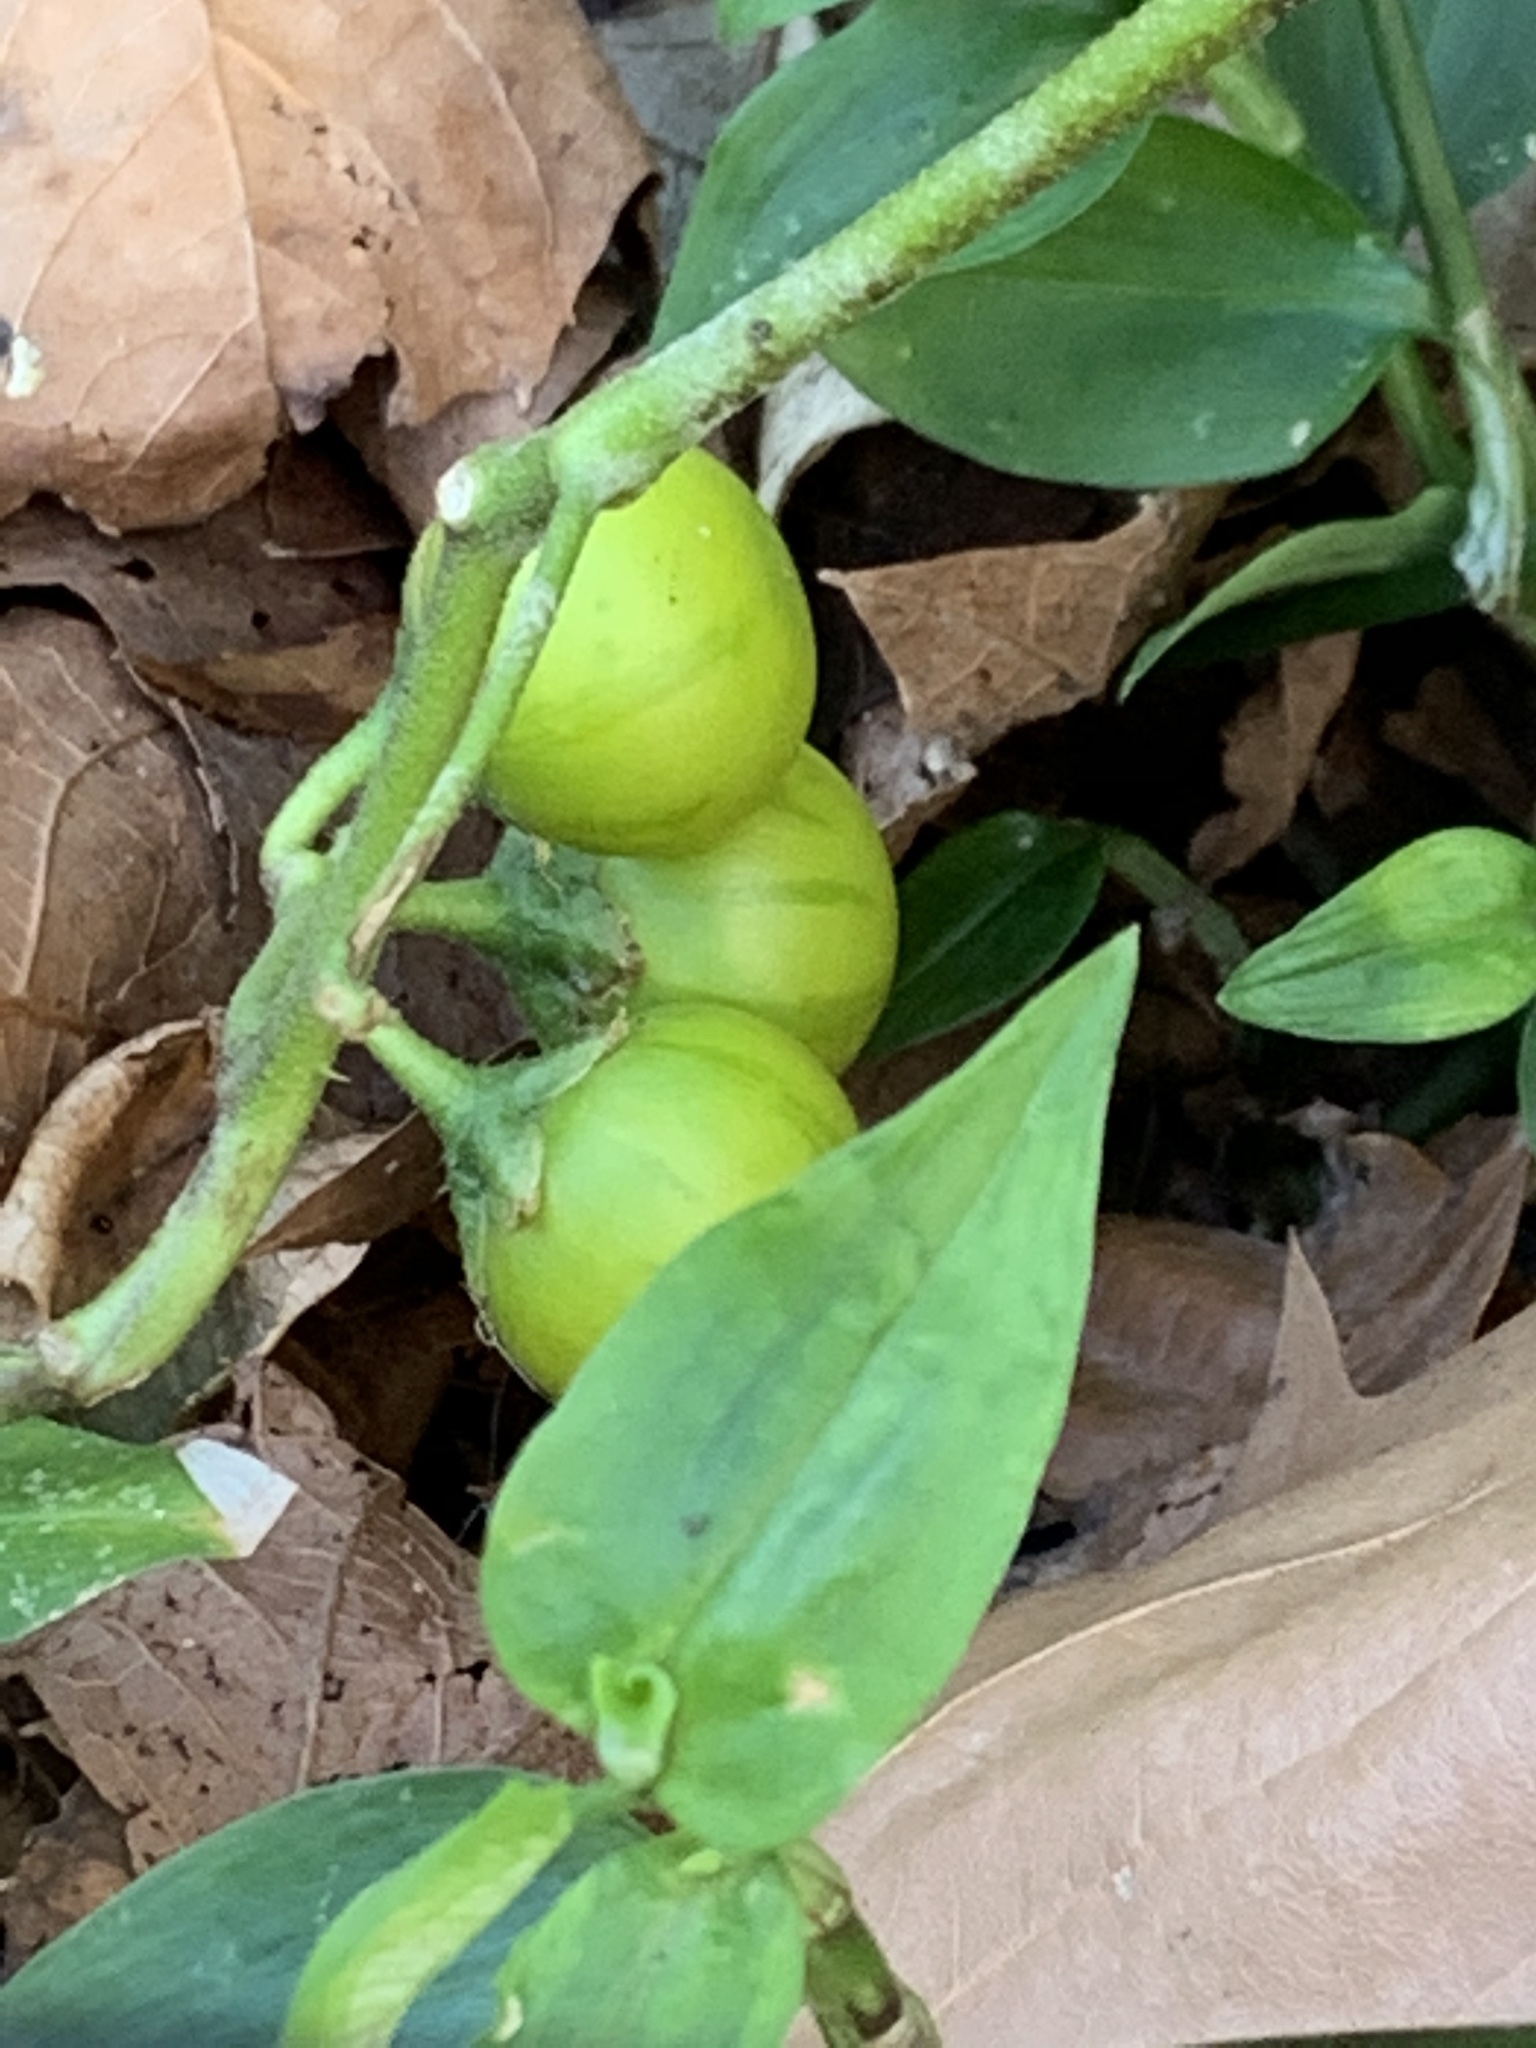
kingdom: Plantae
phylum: Tracheophyta
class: Magnoliopsida
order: Solanales
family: Solanaceae
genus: Solanum
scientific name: Solanum carolinense
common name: Horse-nettle
